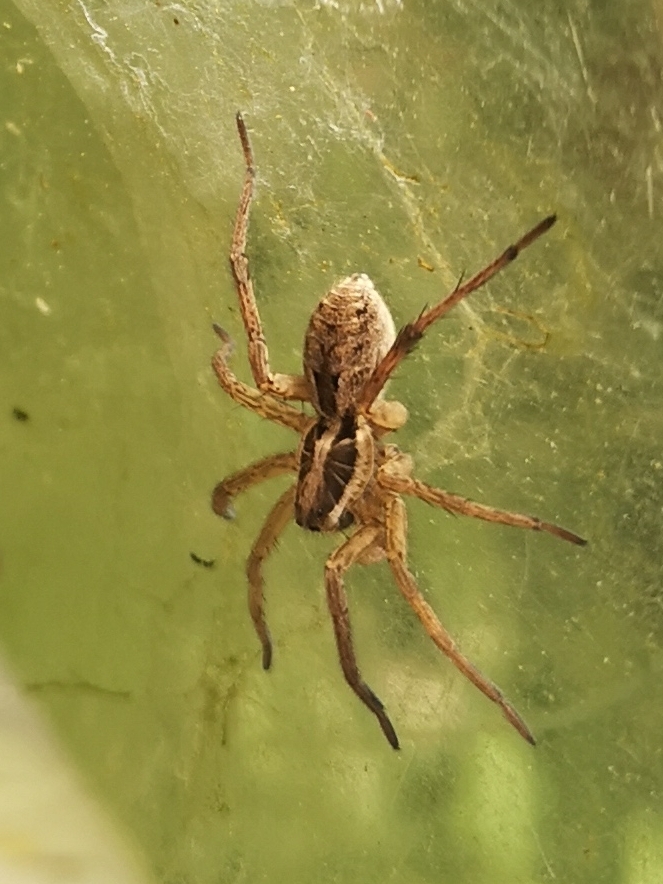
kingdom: Animalia
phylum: Arthropoda
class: Arachnida
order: Araneae
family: Lycosidae
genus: Hogna
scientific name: Hogna radiata
